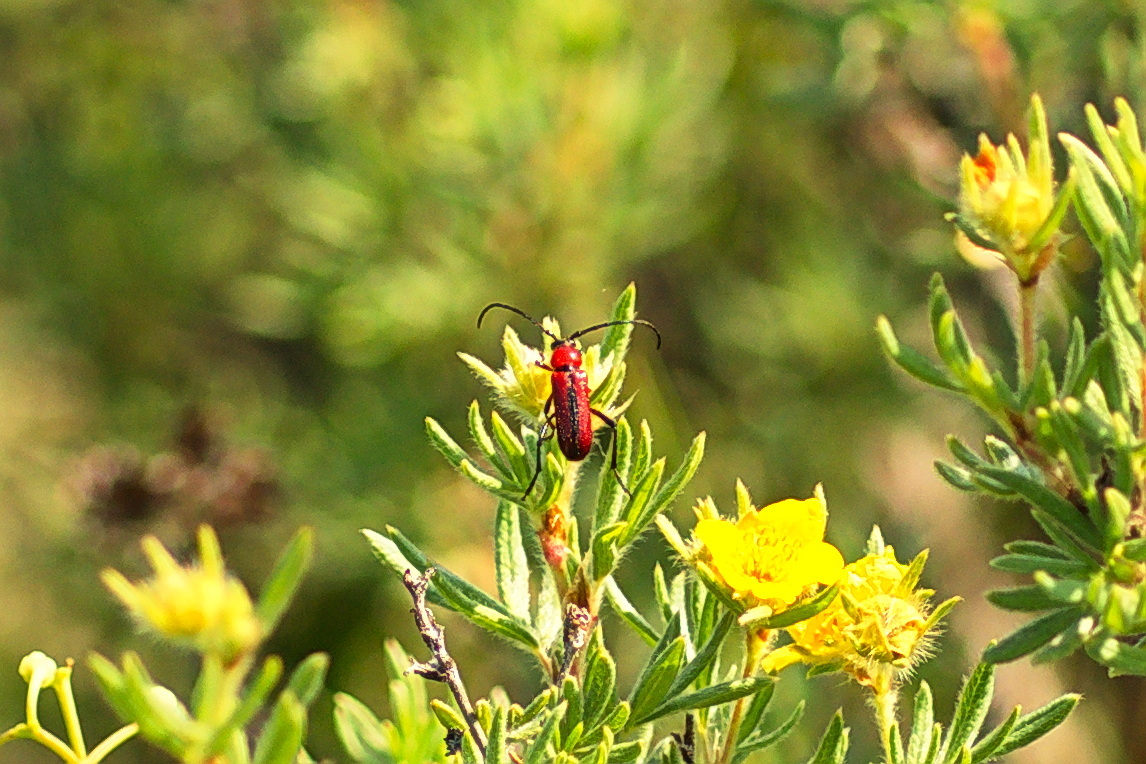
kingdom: Animalia
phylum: Arthropoda
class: Insecta
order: Coleoptera
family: Cerambycidae
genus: Batyle
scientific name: Batyle suturalis
